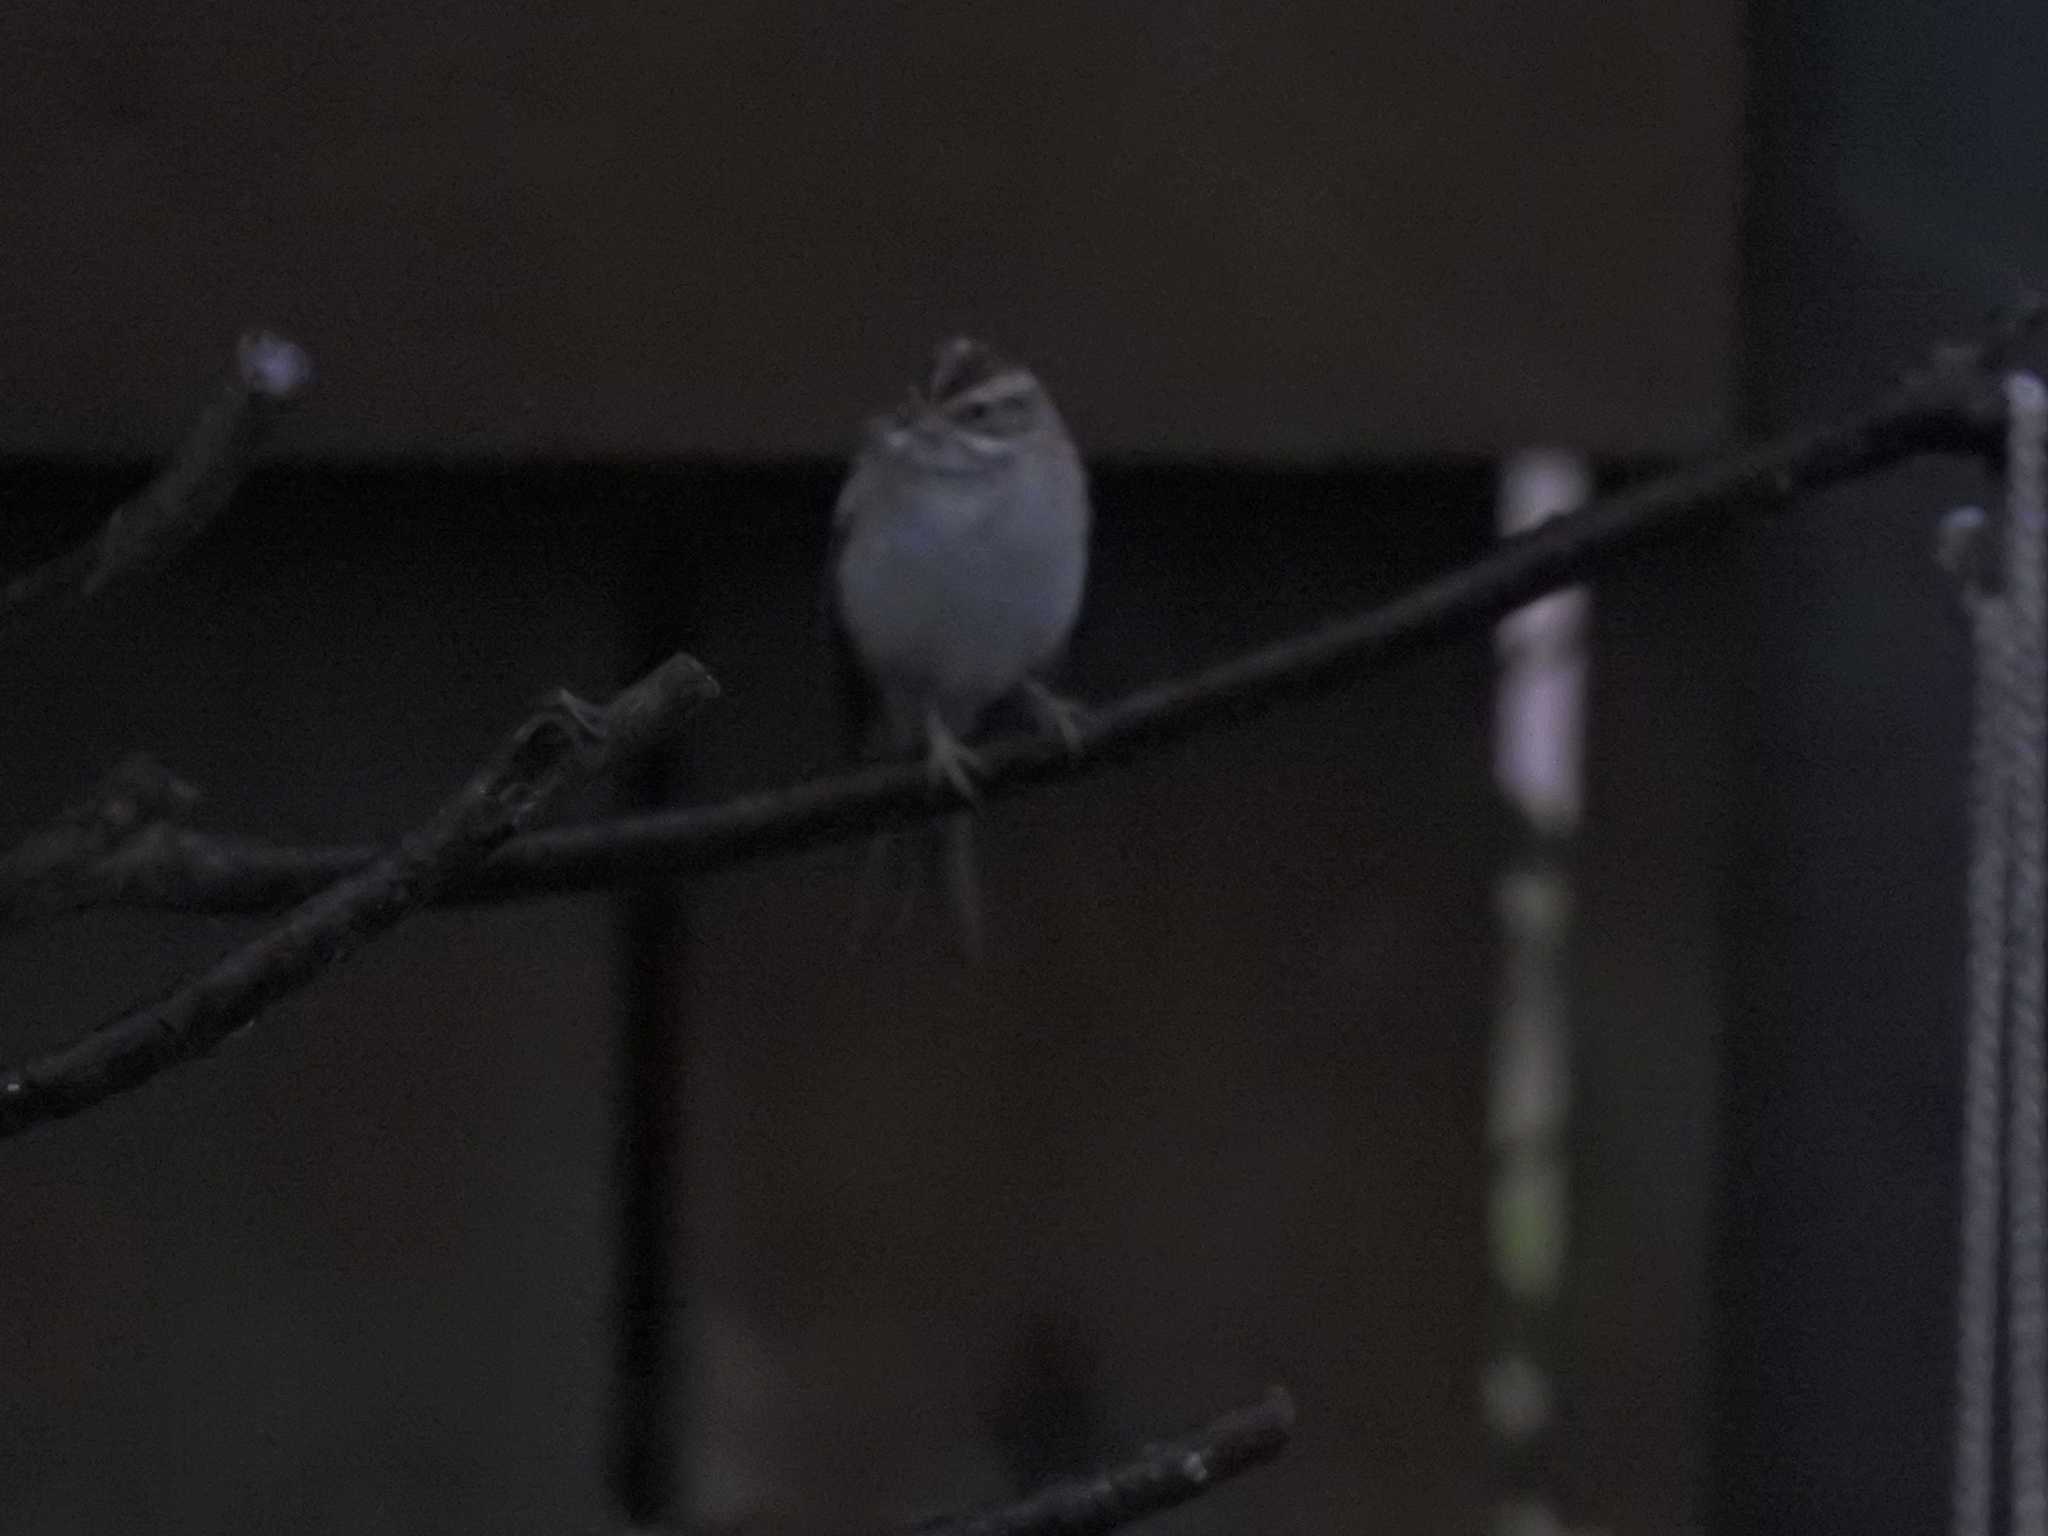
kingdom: Animalia
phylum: Chordata
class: Aves
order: Passeriformes
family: Passerellidae
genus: Spizella
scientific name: Spizella pallida
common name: Clay-colored sparrow
